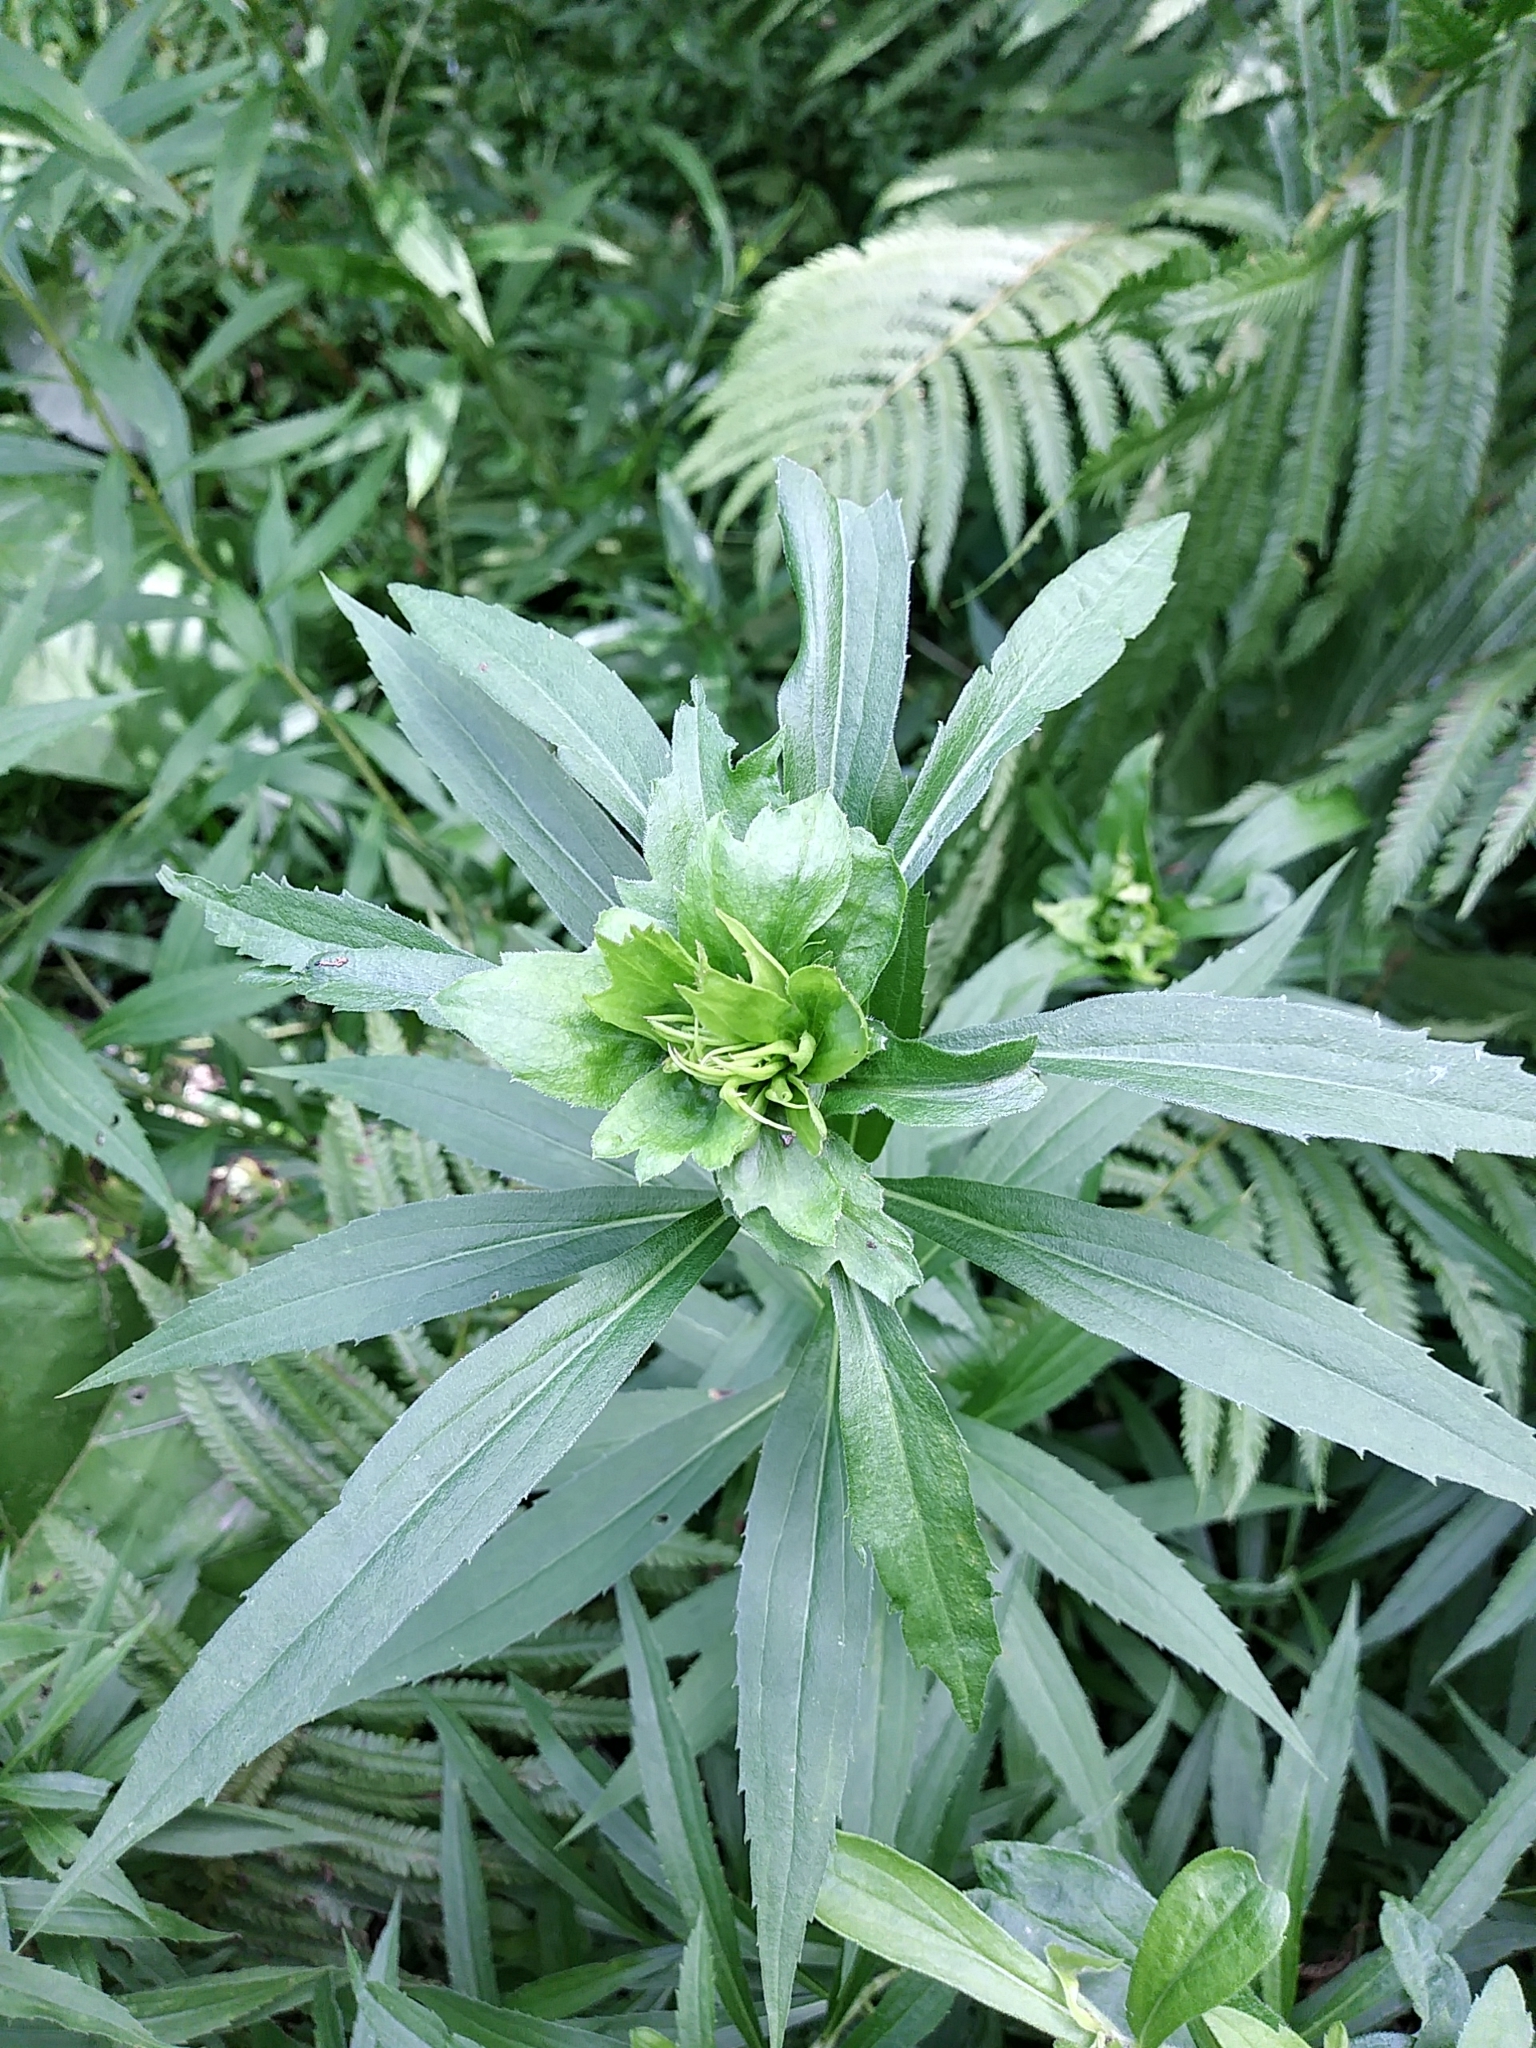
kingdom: Animalia
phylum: Arthropoda
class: Insecta
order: Diptera
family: Cecidomyiidae
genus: Rhopalomyia
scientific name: Rhopalomyia solidaginis
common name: Goldenrod bunch gall midge
